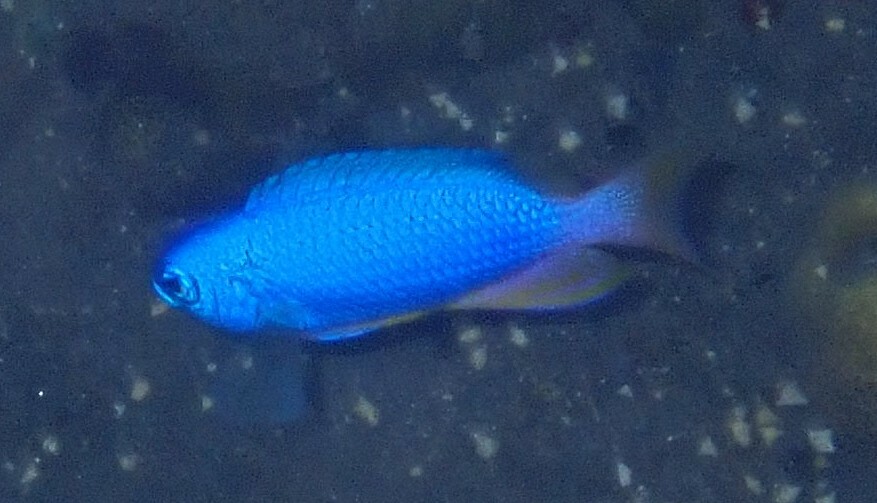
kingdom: Animalia
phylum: Chordata
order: Perciformes
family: Pomacentridae
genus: Pomacentrus
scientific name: Pomacentrus coelestis
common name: Neon damsel
